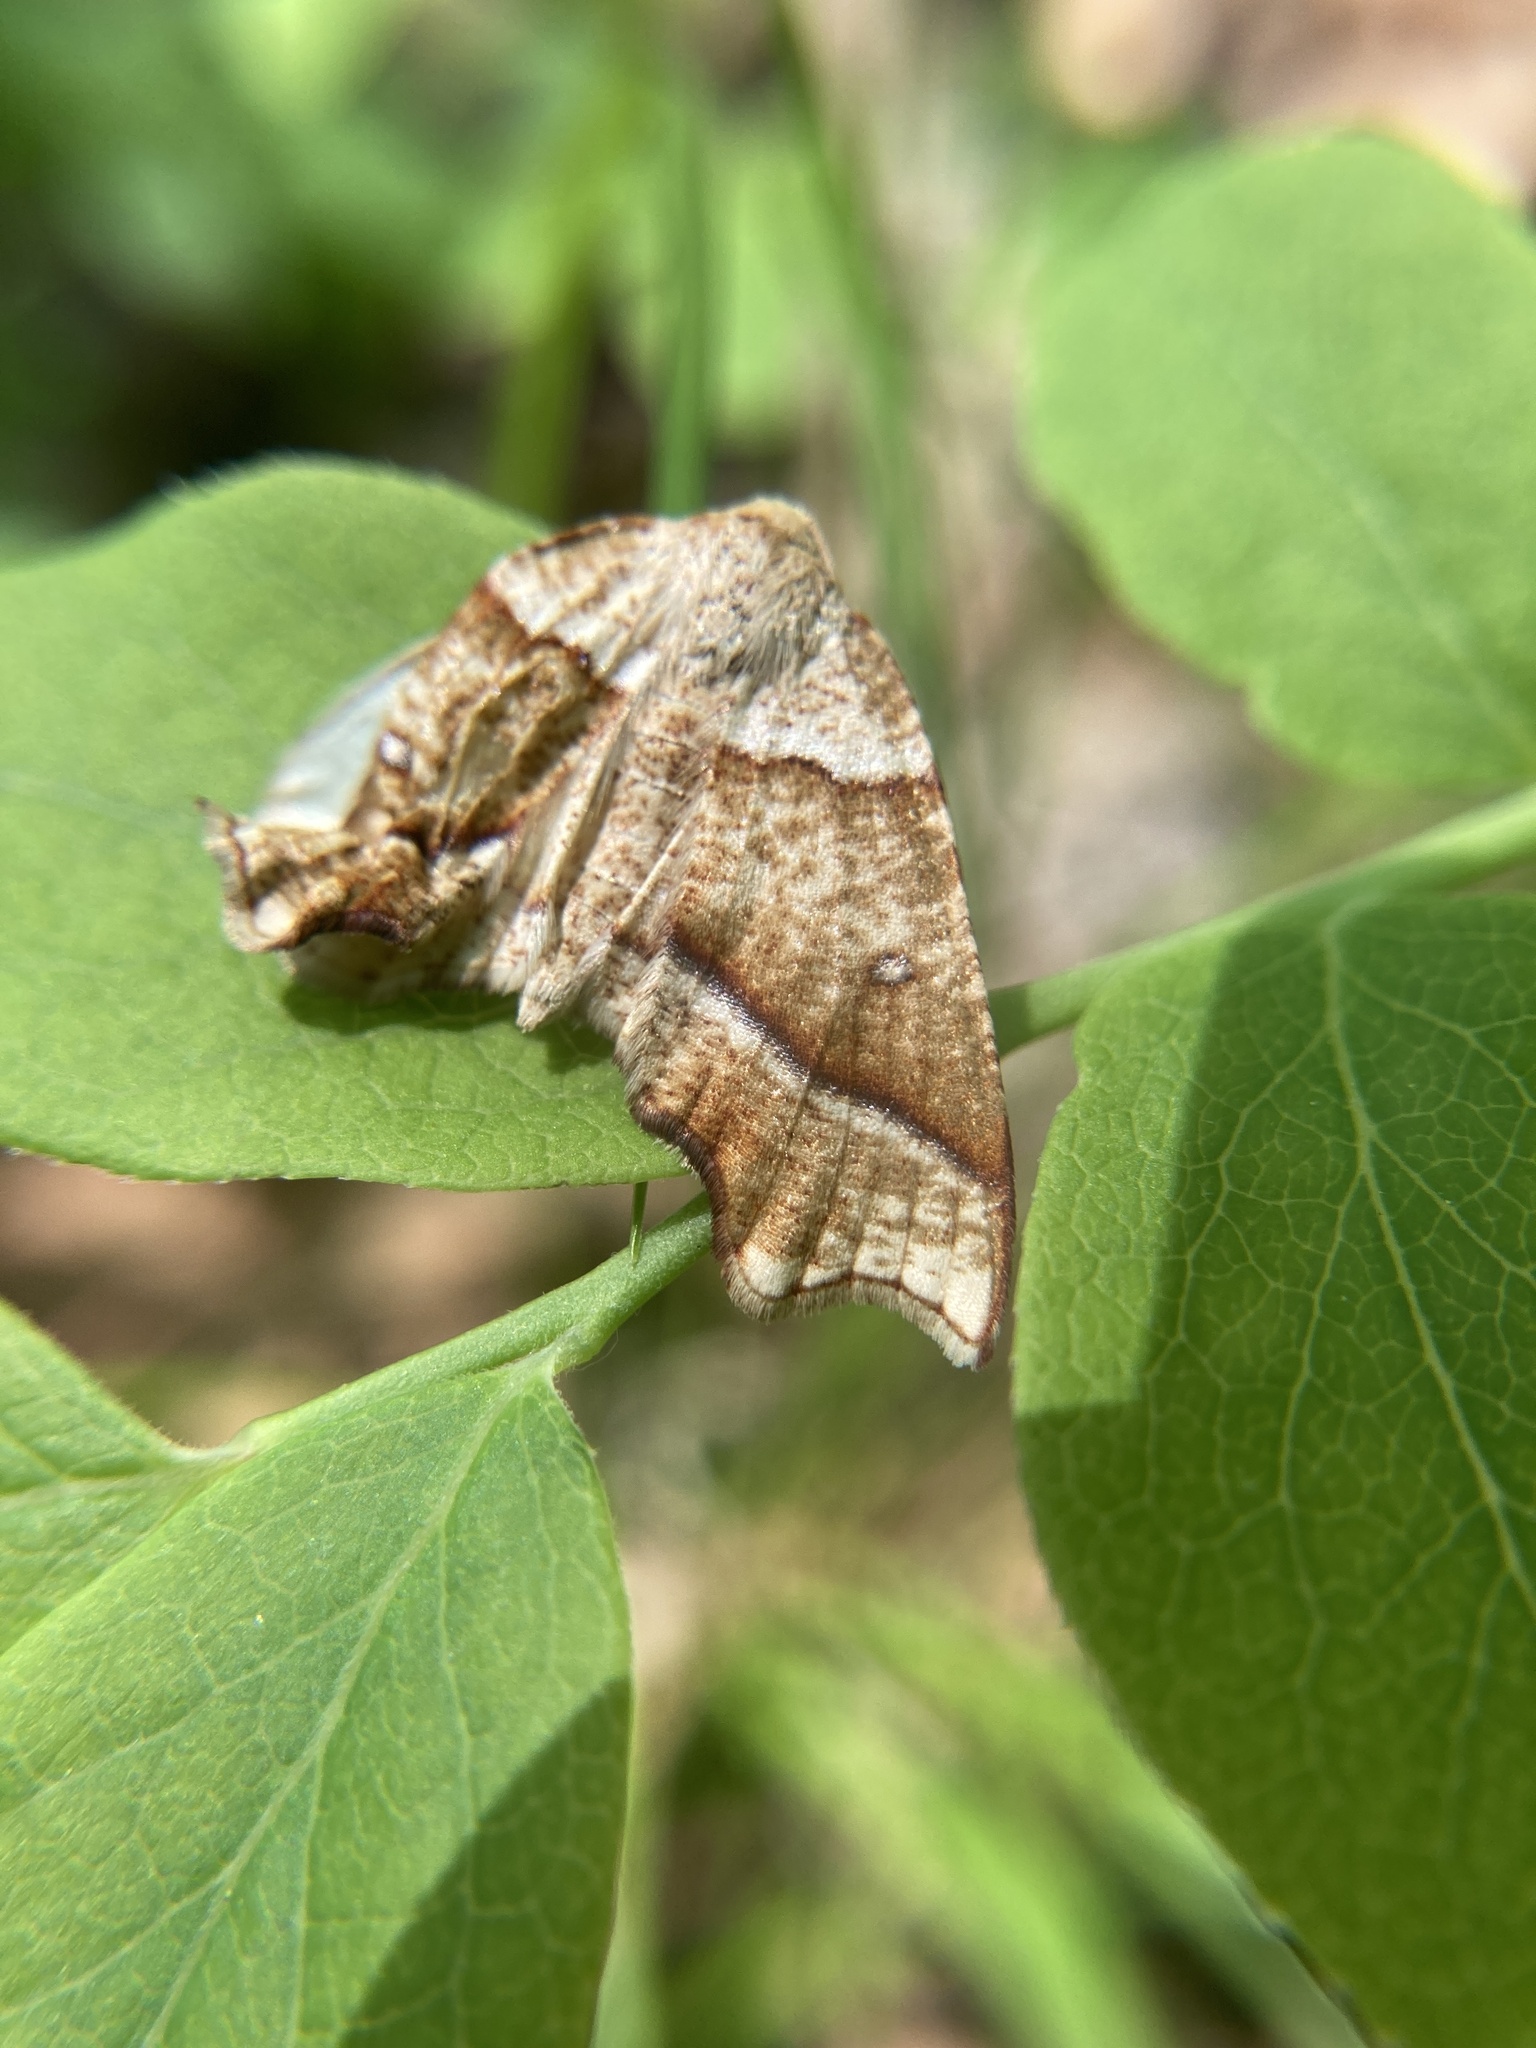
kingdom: Animalia
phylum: Arthropoda
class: Insecta
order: Lepidoptera
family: Geometridae
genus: Plagodis
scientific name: Plagodis alcoolaria
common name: Hollow-spotted plagodis
